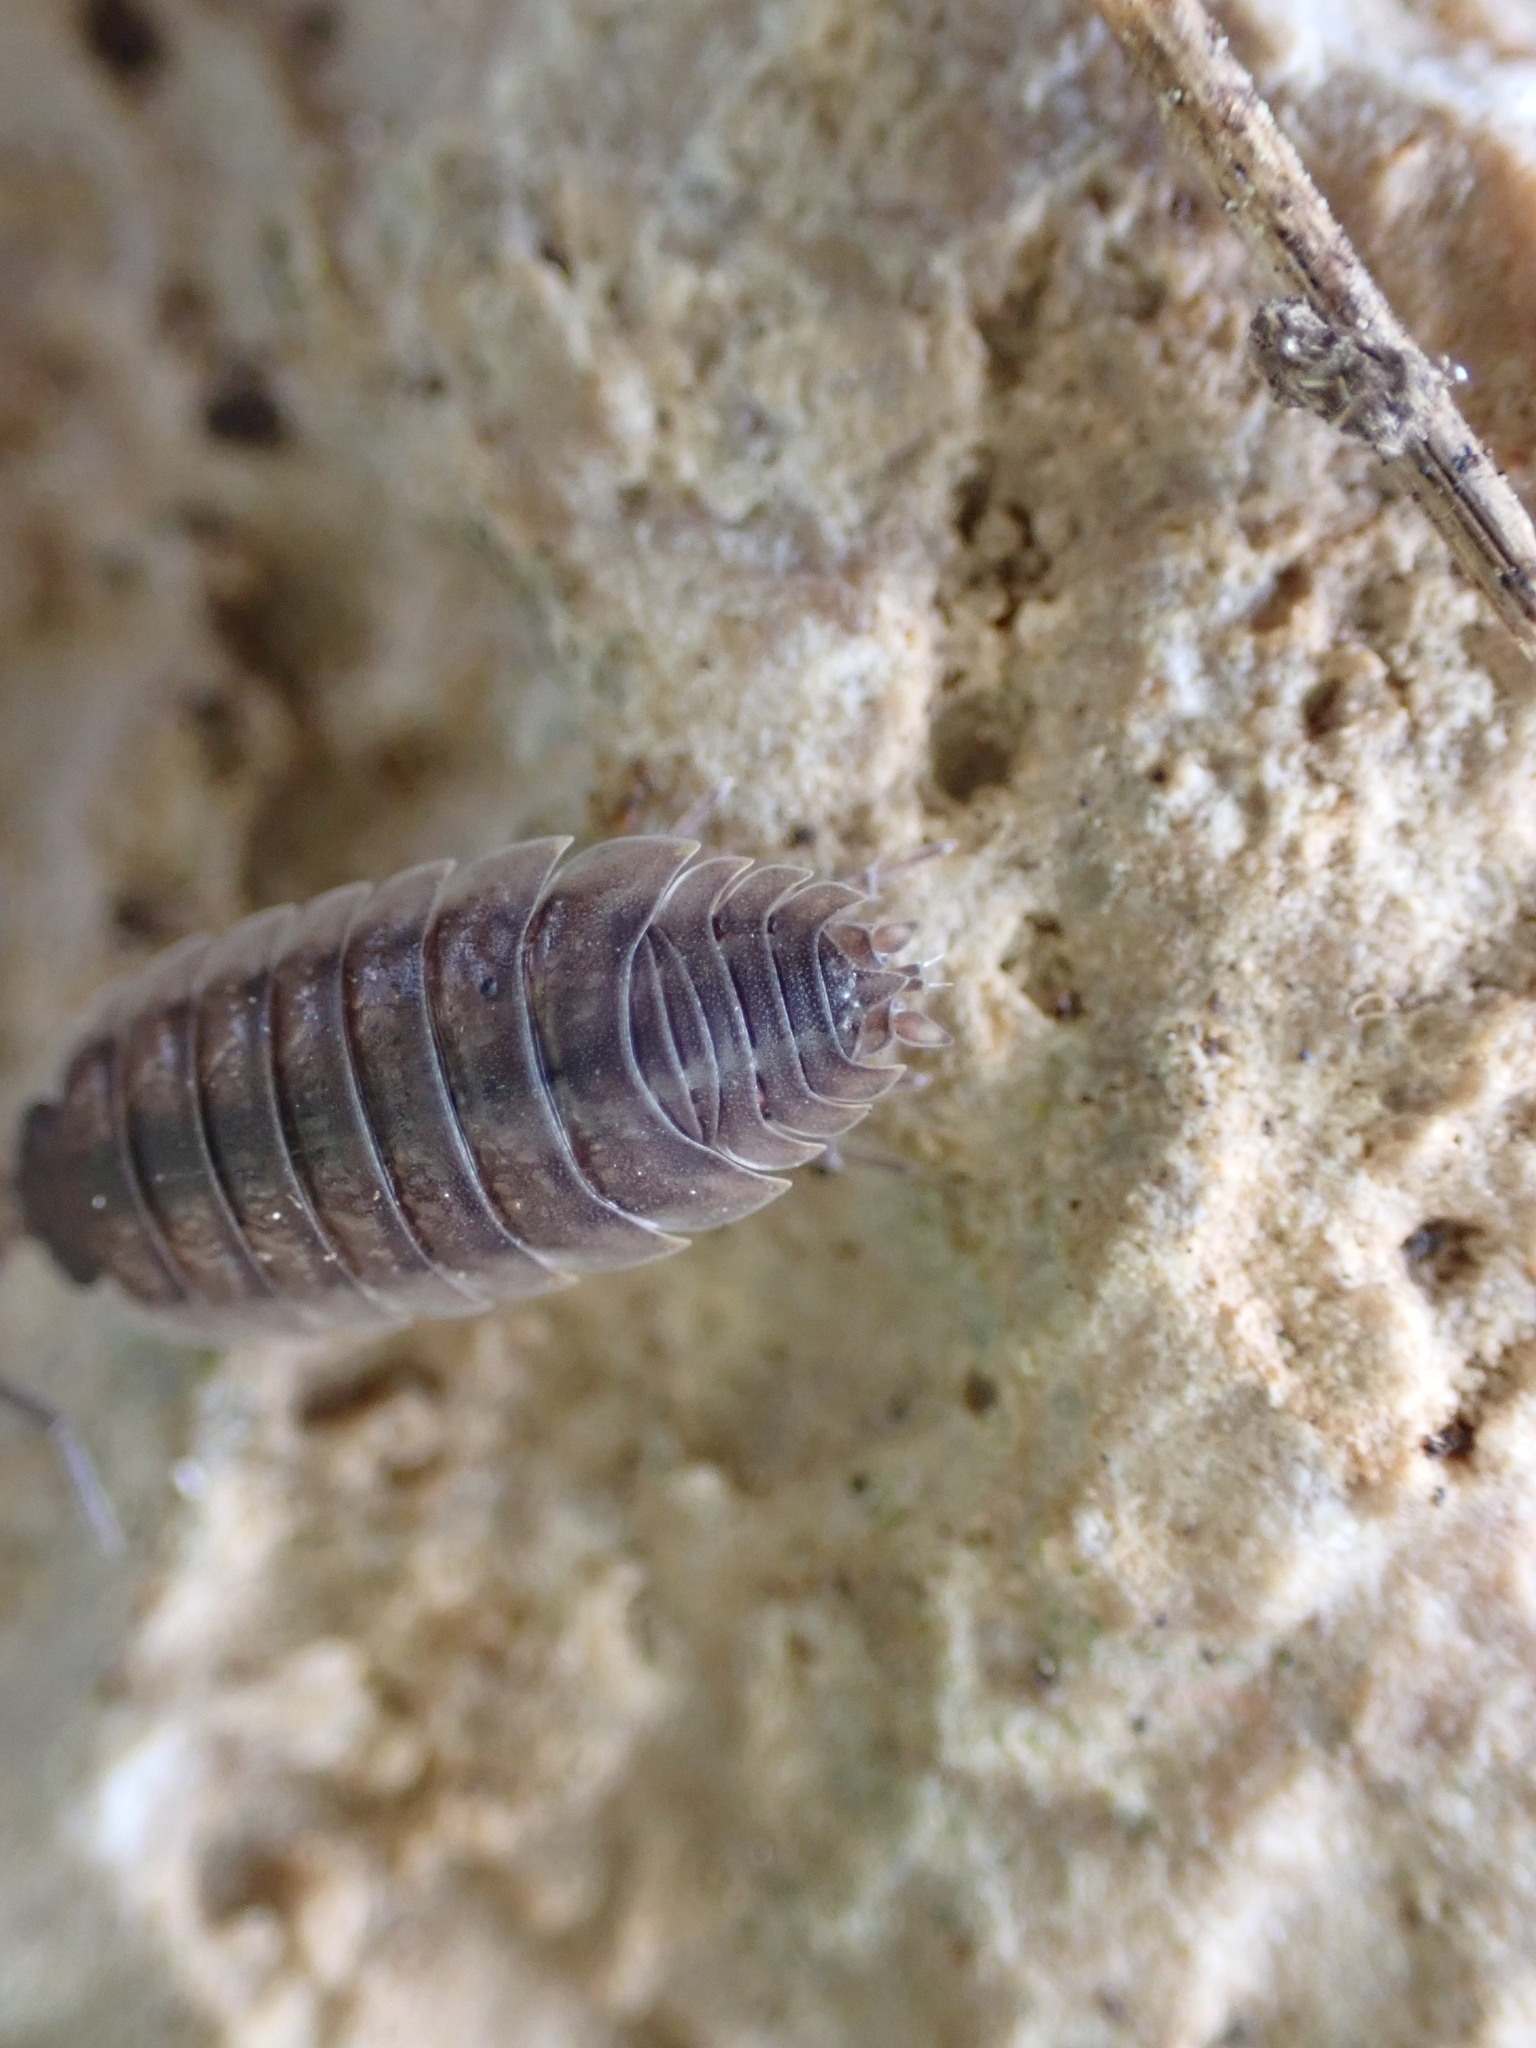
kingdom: Animalia
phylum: Arthropoda
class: Malacostraca
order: Isopoda
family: Porcellionidae
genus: Porcellio
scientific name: Porcellio orarum
